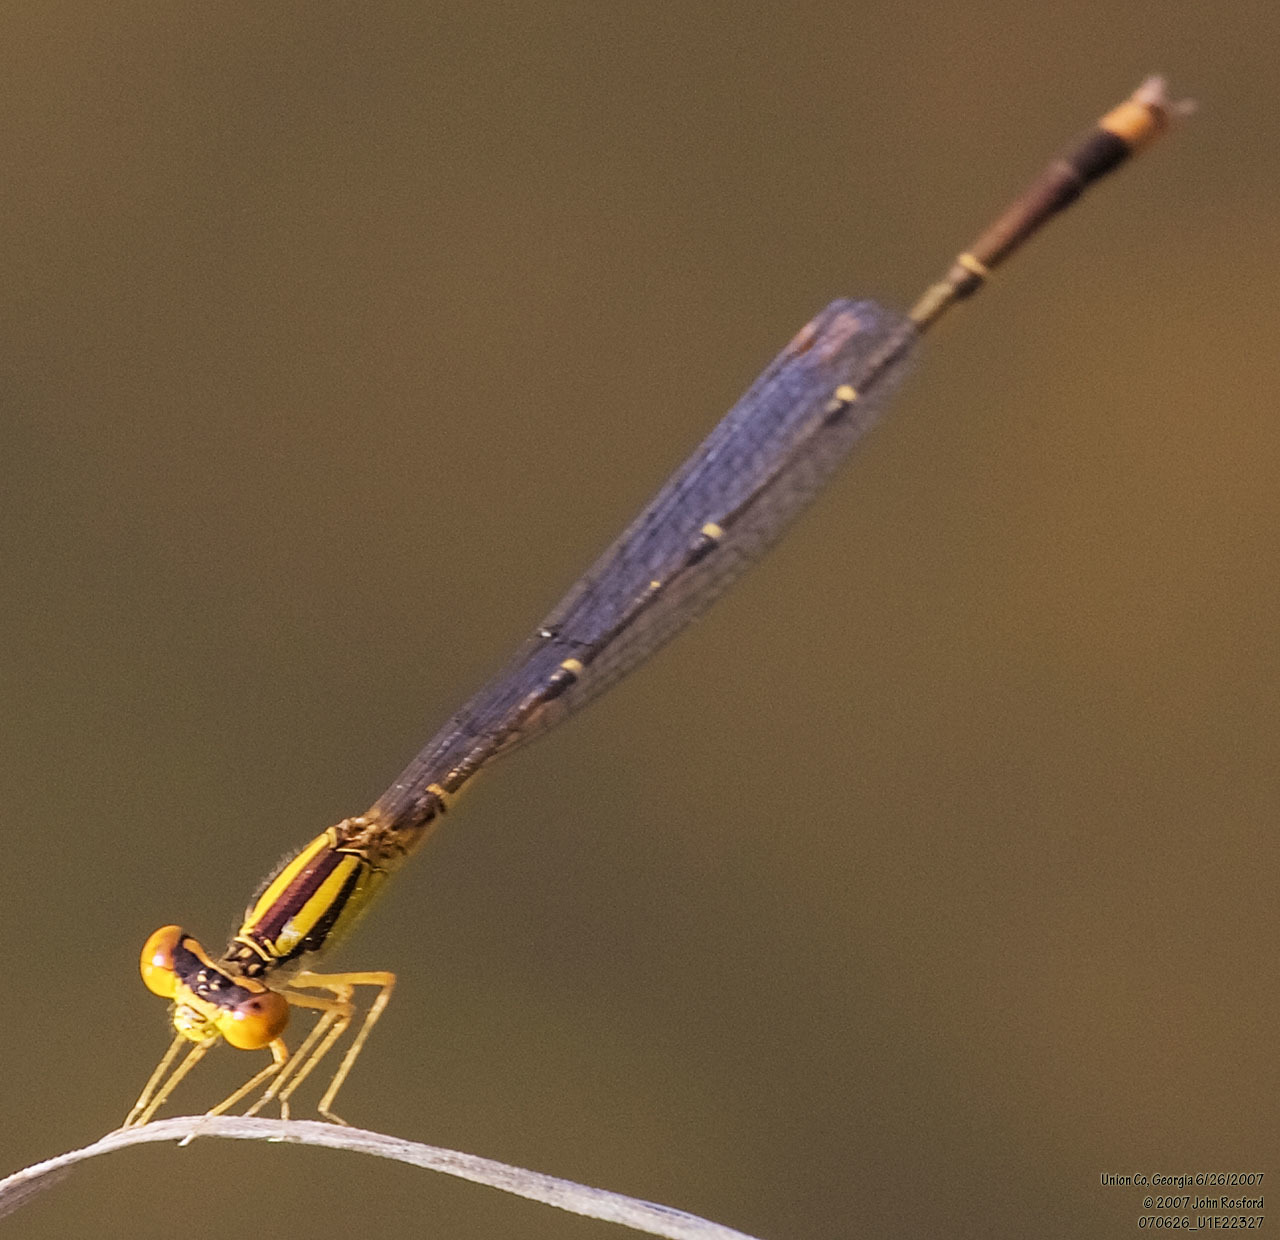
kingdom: Animalia
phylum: Arthropoda
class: Insecta
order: Odonata
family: Coenagrionidae
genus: Enallagma
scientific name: Enallagma signatum
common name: Orange bluet
